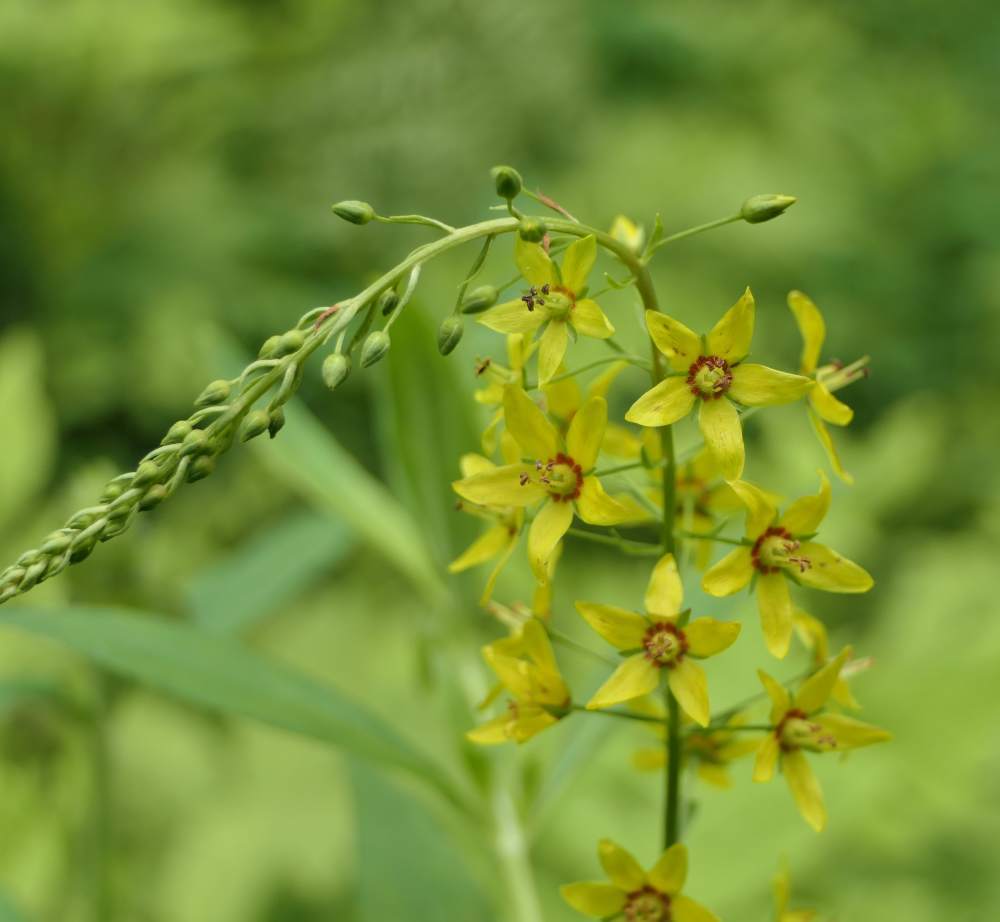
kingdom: Plantae
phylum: Tracheophyta
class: Magnoliopsida
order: Ericales
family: Primulaceae
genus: Lysimachia
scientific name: Lysimachia terrestris
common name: Lake loosestrife
